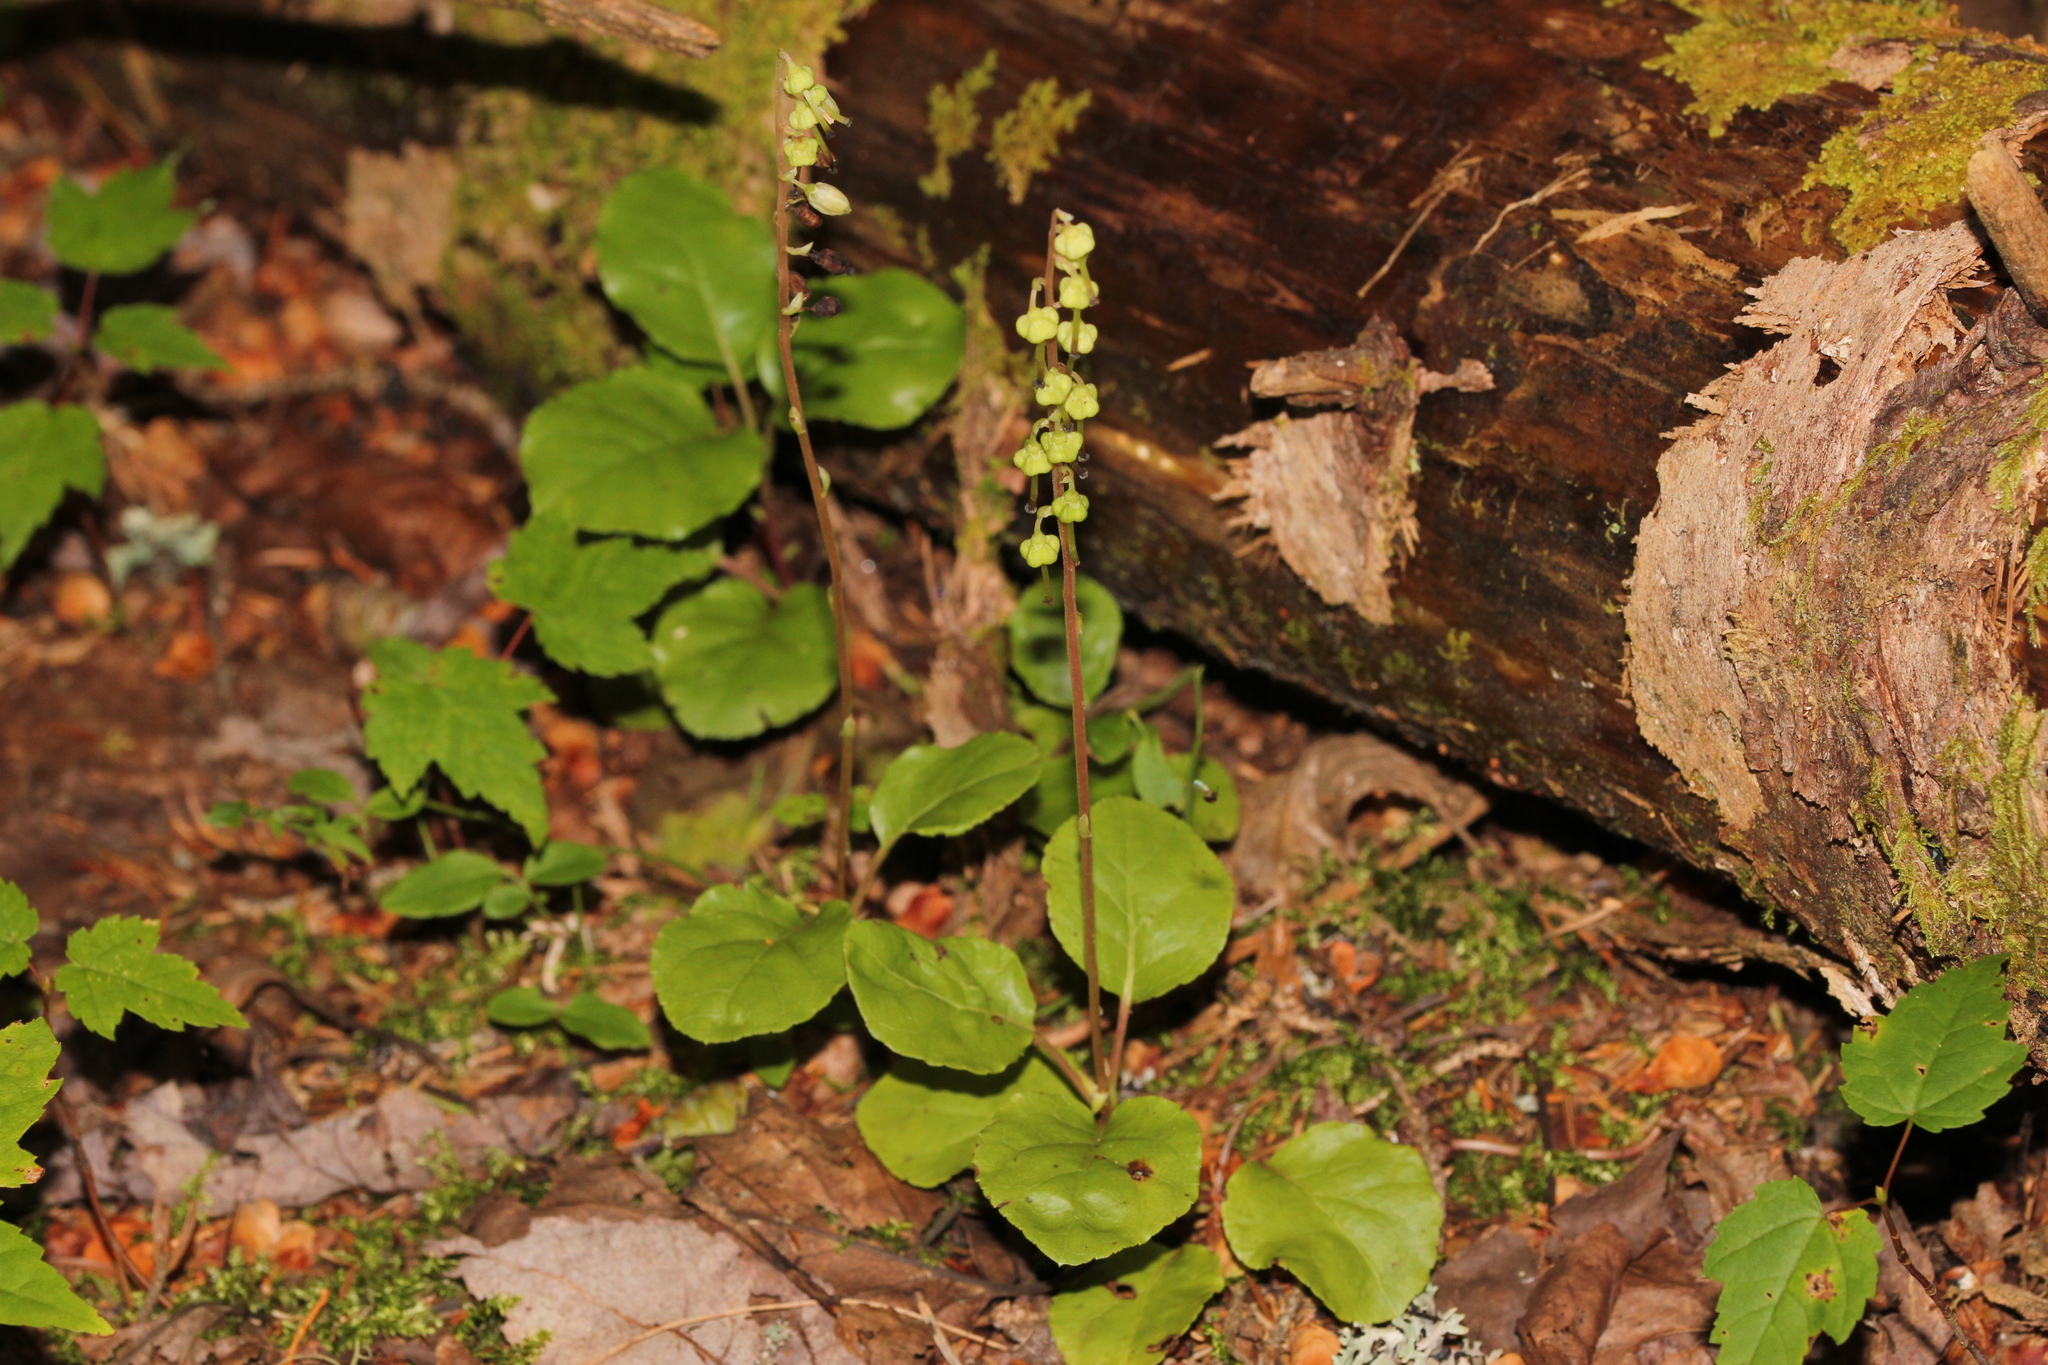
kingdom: Plantae
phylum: Tracheophyta
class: Magnoliopsida
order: Ericales
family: Ericaceae
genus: Orthilia
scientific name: Orthilia secunda
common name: One-sided orthilia
